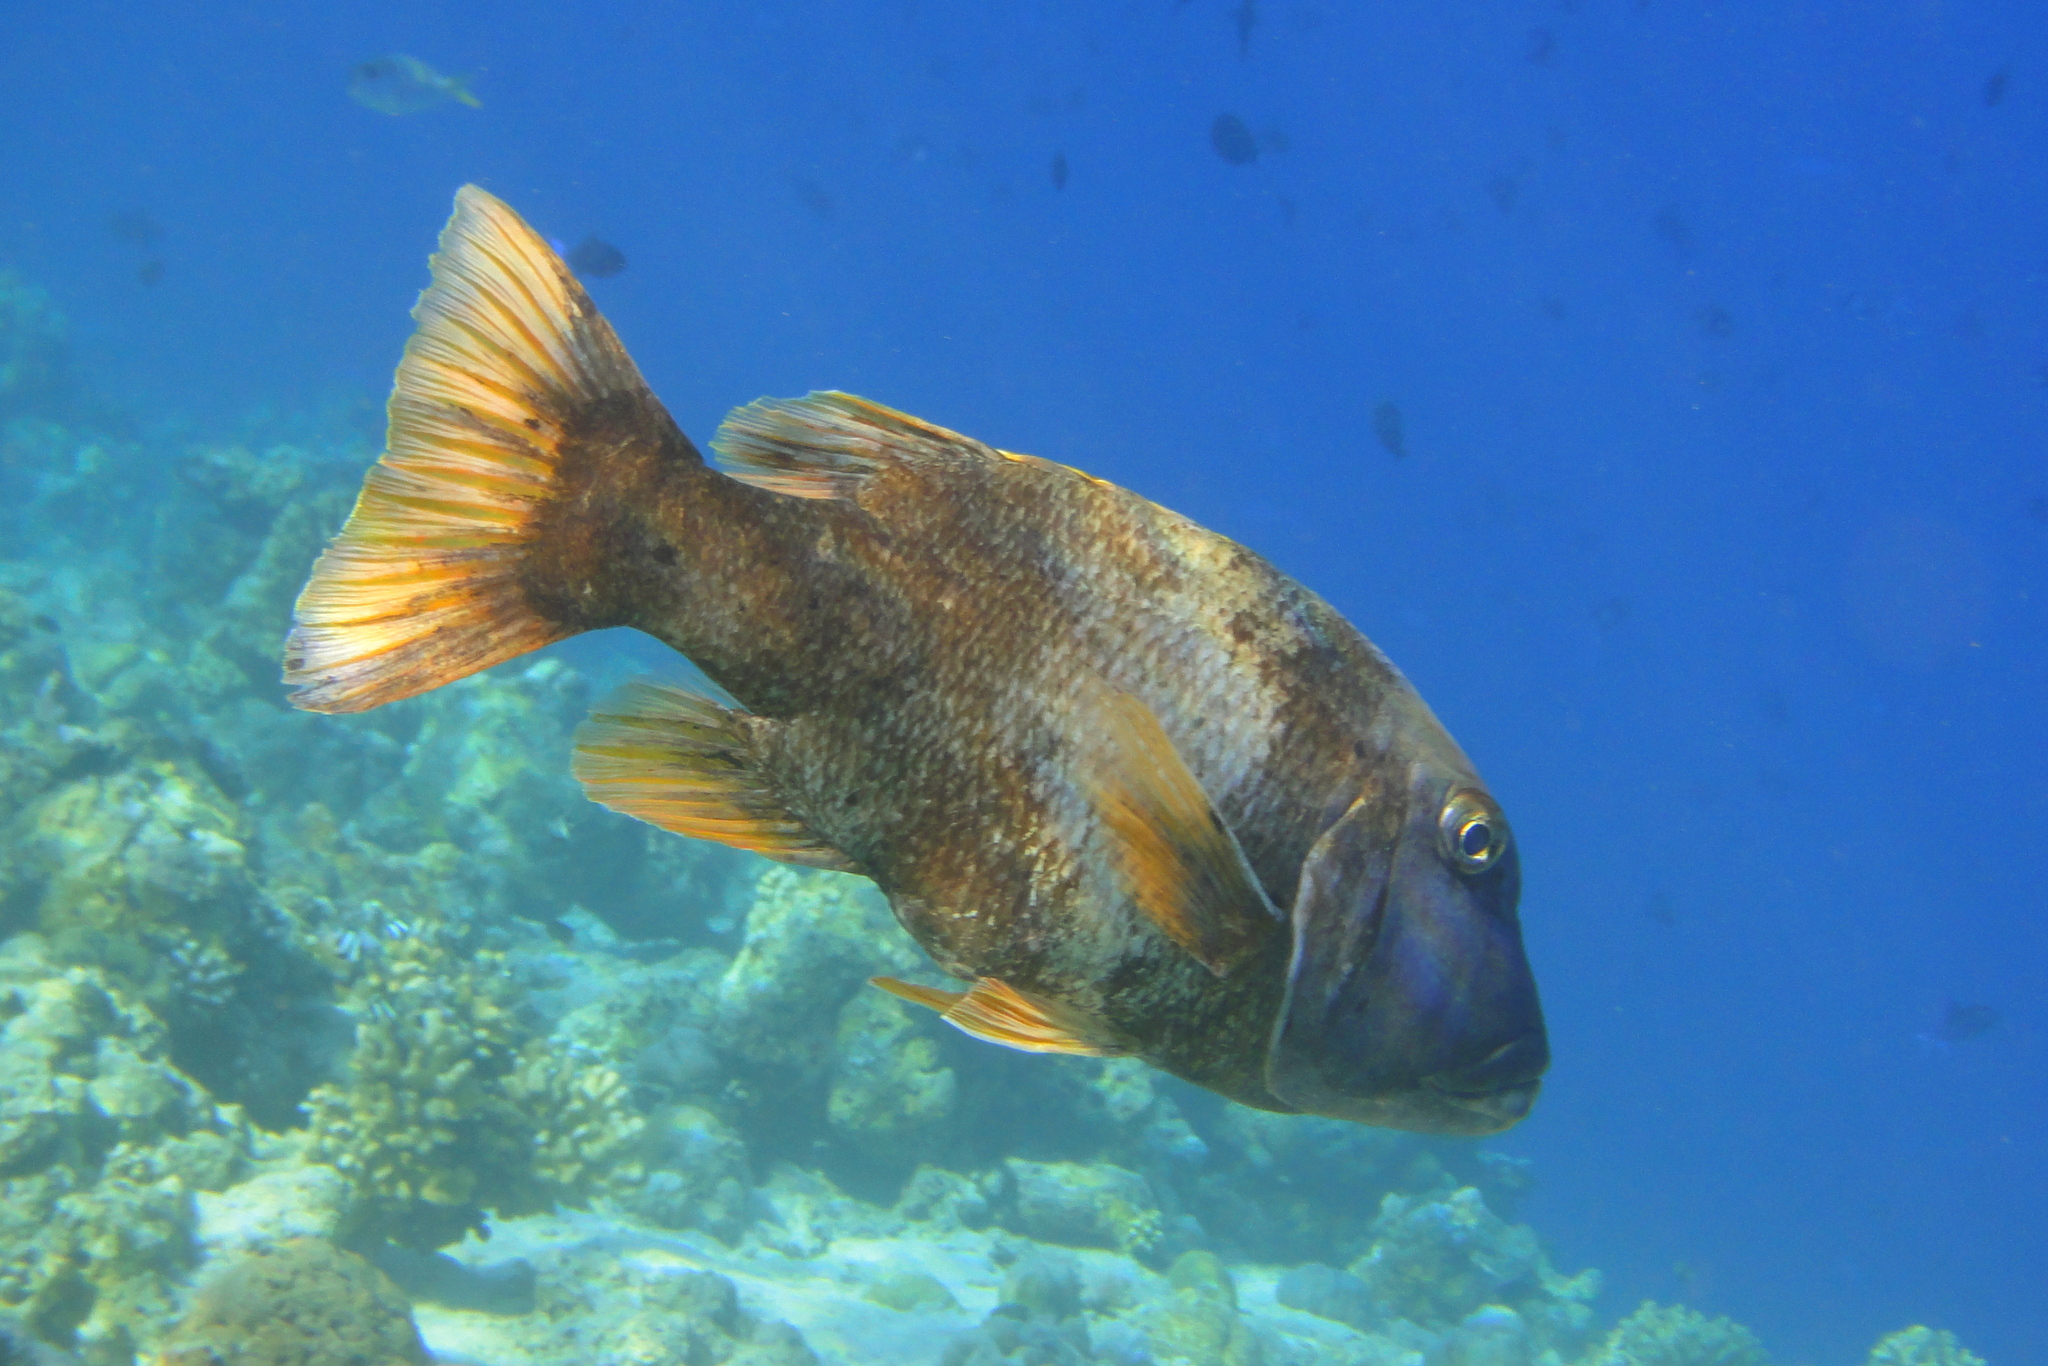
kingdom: Animalia
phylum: Chordata
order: Perciformes
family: Lethrinidae
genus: Lethrinus
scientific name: Lethrinus erythracanthus
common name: Orange-spotted emperor
